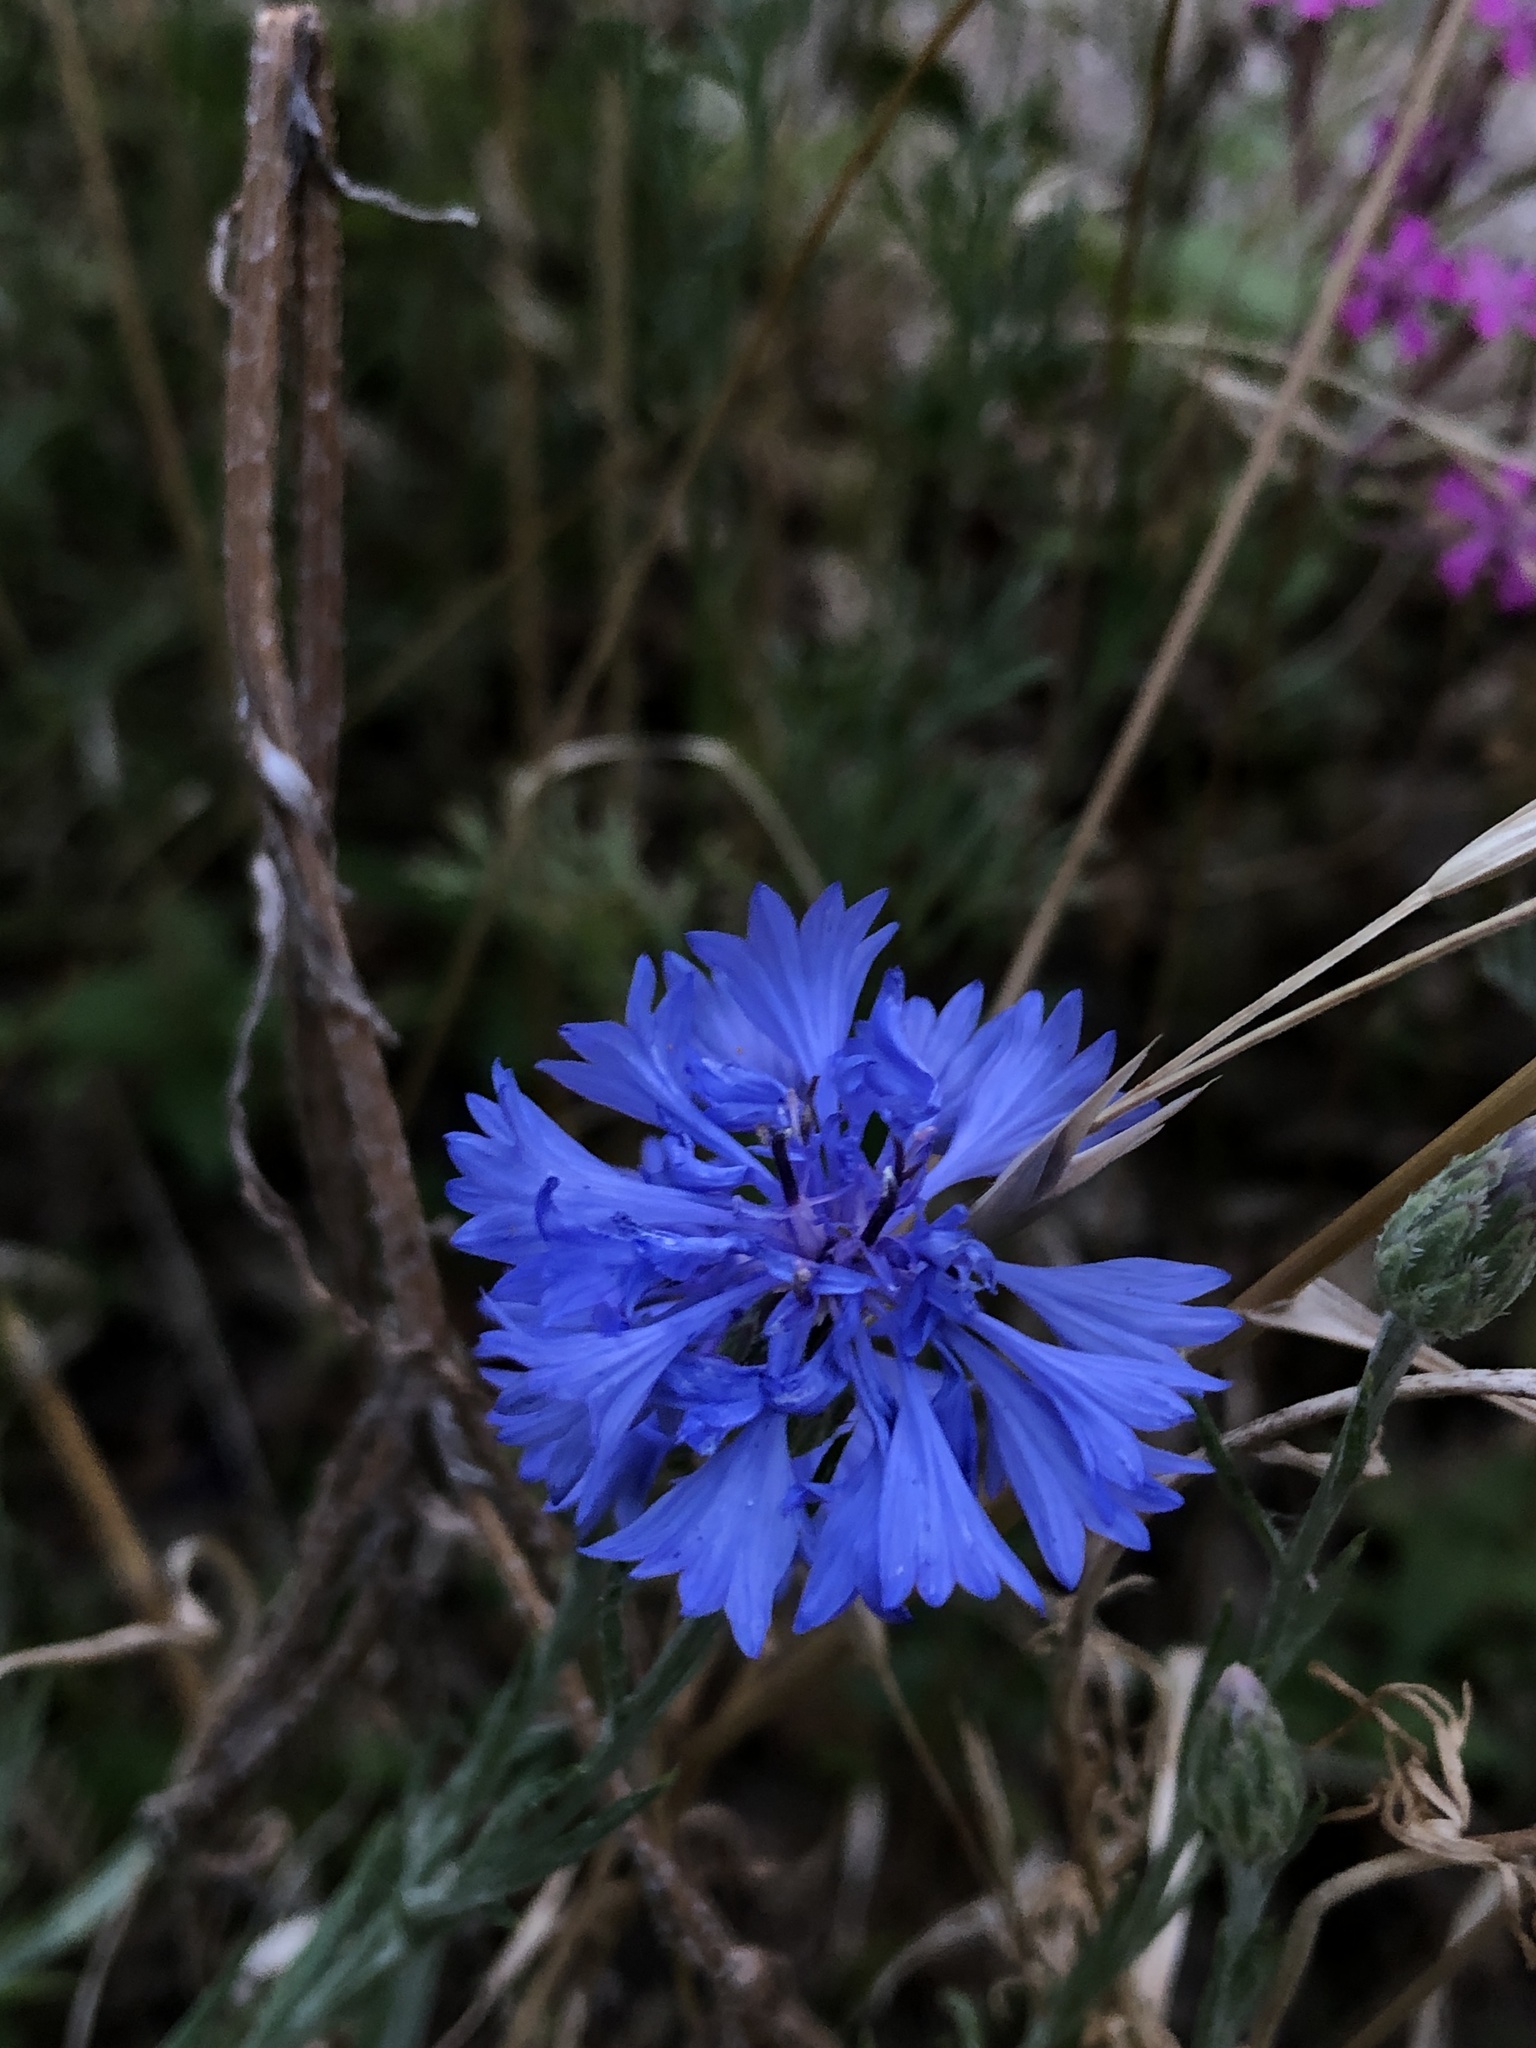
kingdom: Plantae
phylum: Tracheophyta
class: Magnoliopsida
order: Asterales
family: Asteraceae
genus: Centaurea
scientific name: Centaurea cyanus
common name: Cornflower
